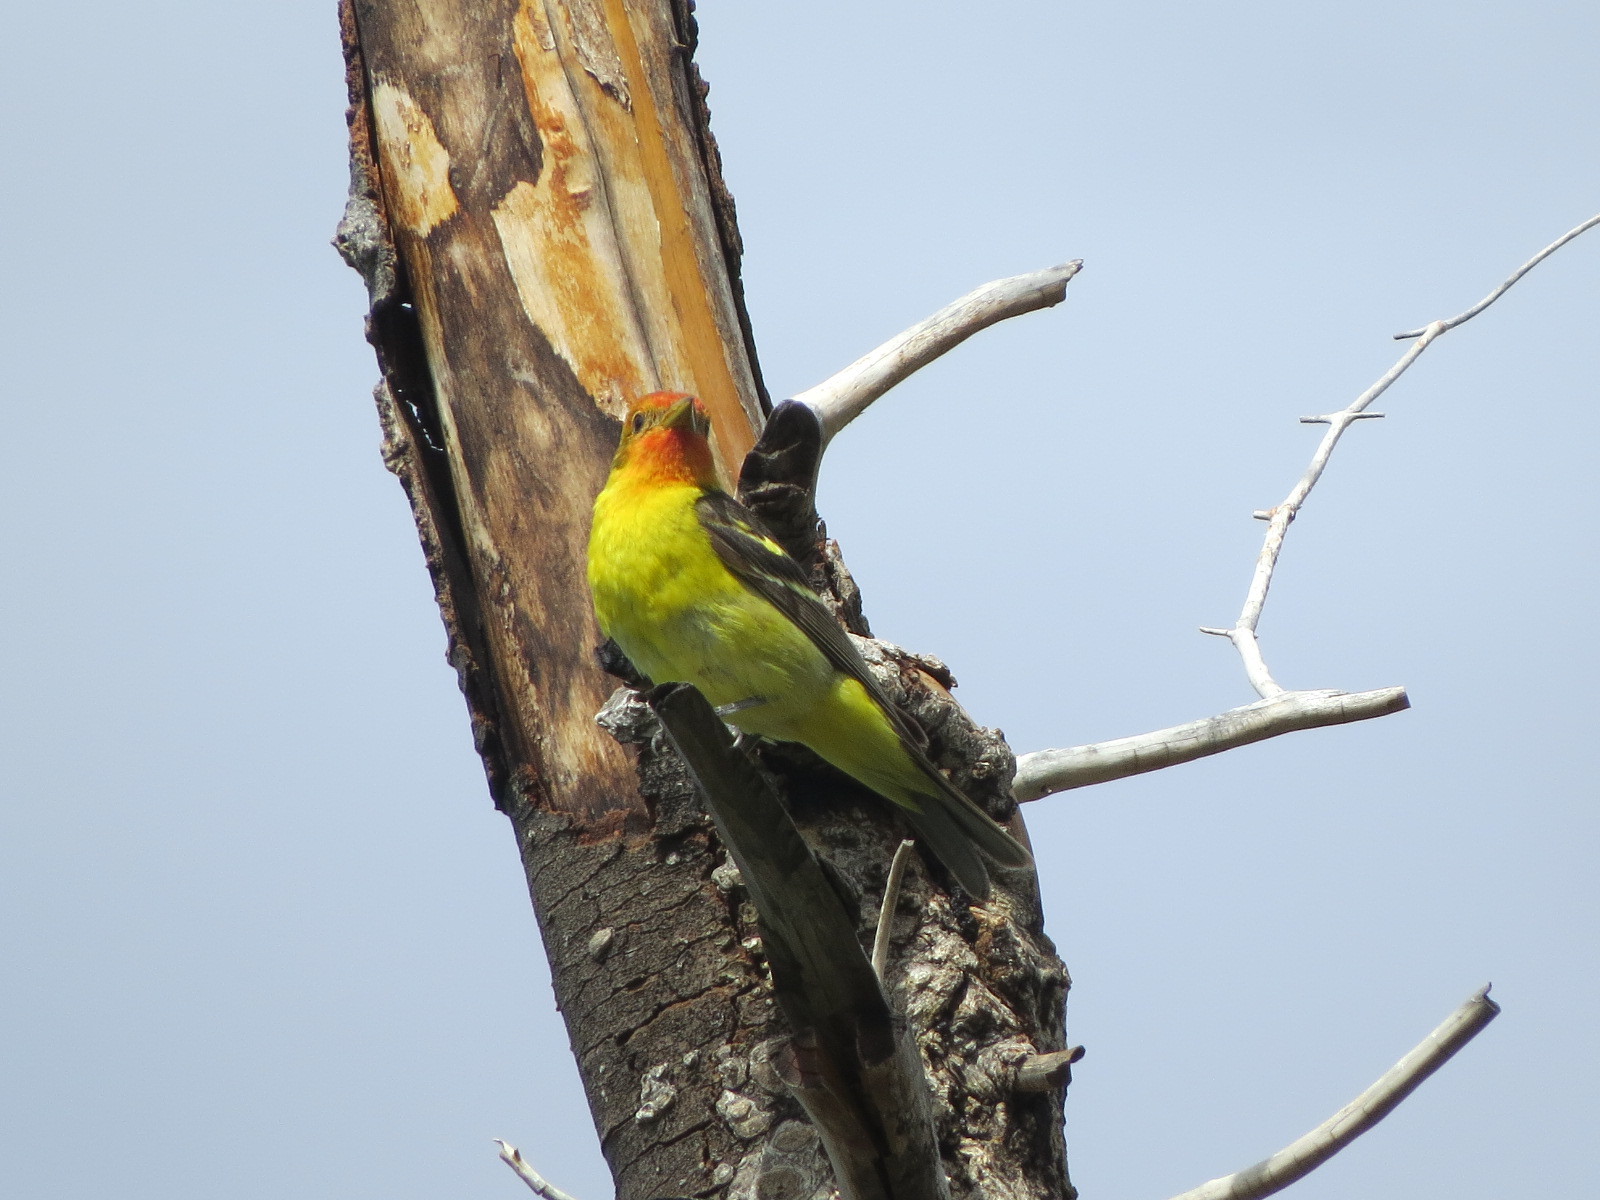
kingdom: Animalia
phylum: Chordata
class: Aves
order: Passeriformes
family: Cardinalidae
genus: Piranga
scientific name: Piranga ludoviciana
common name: Western tanager
